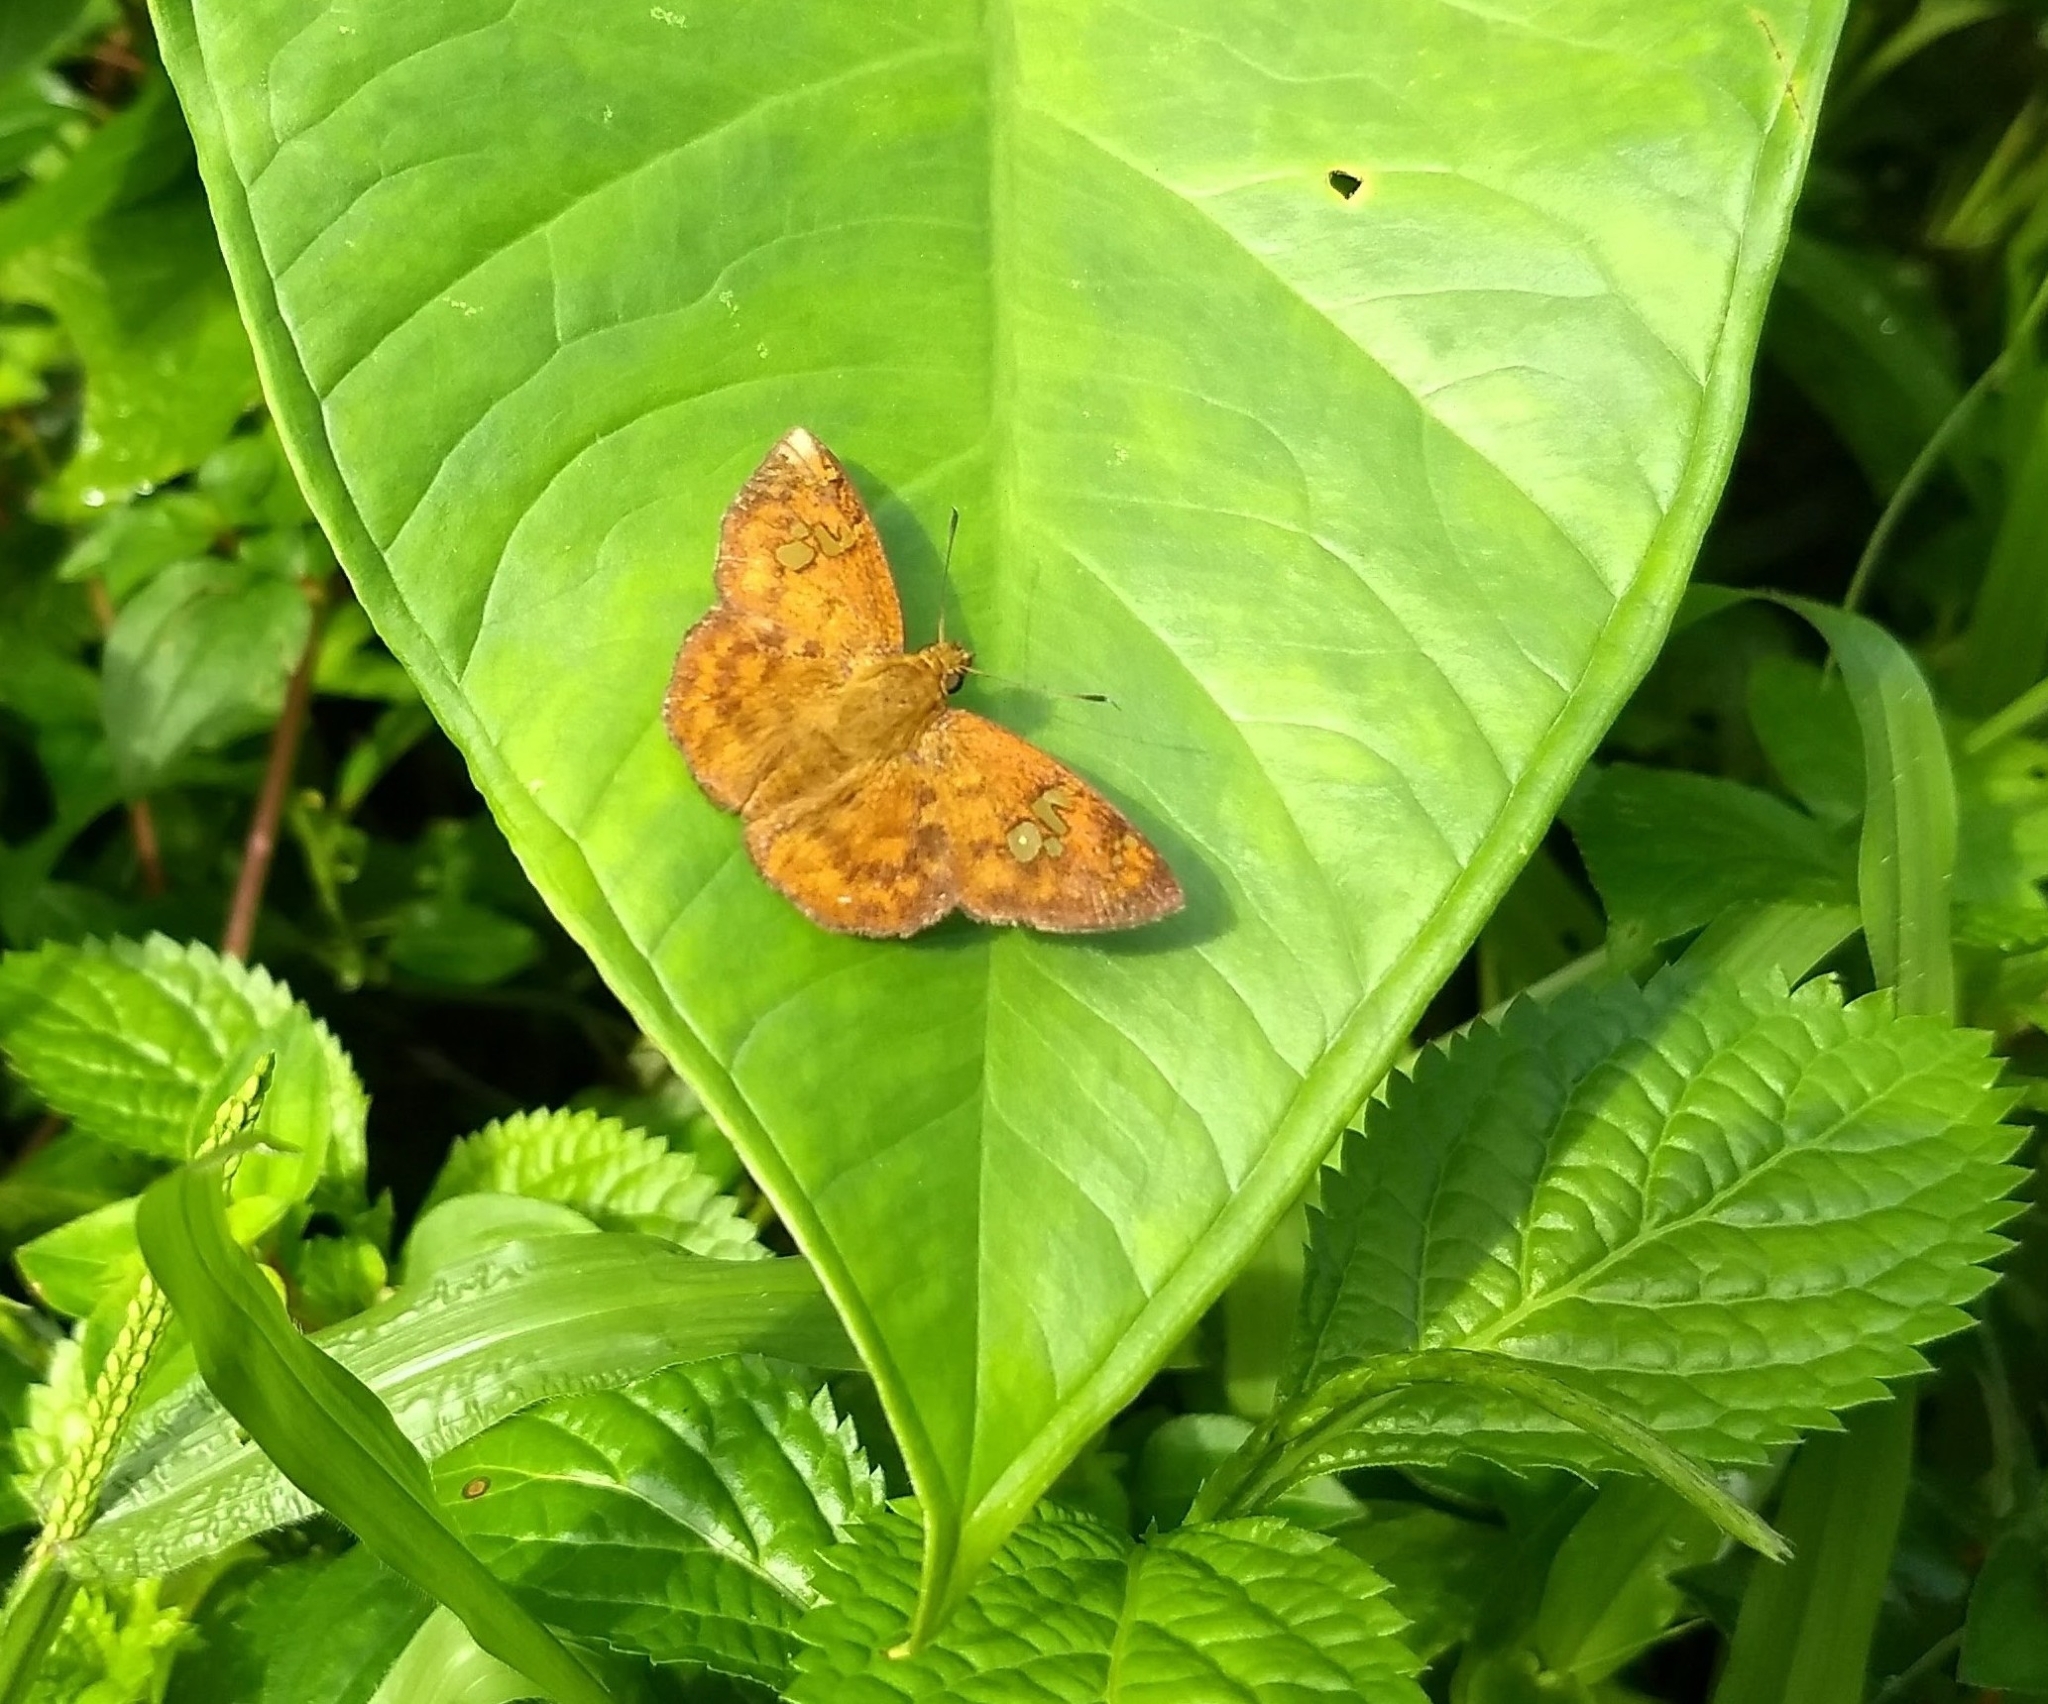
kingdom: Animalia
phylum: Arthropoda
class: Insecta
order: Lepidoptera
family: Hesperiidae
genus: Pseudocoladenia
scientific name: Pseudocoladenia dan
